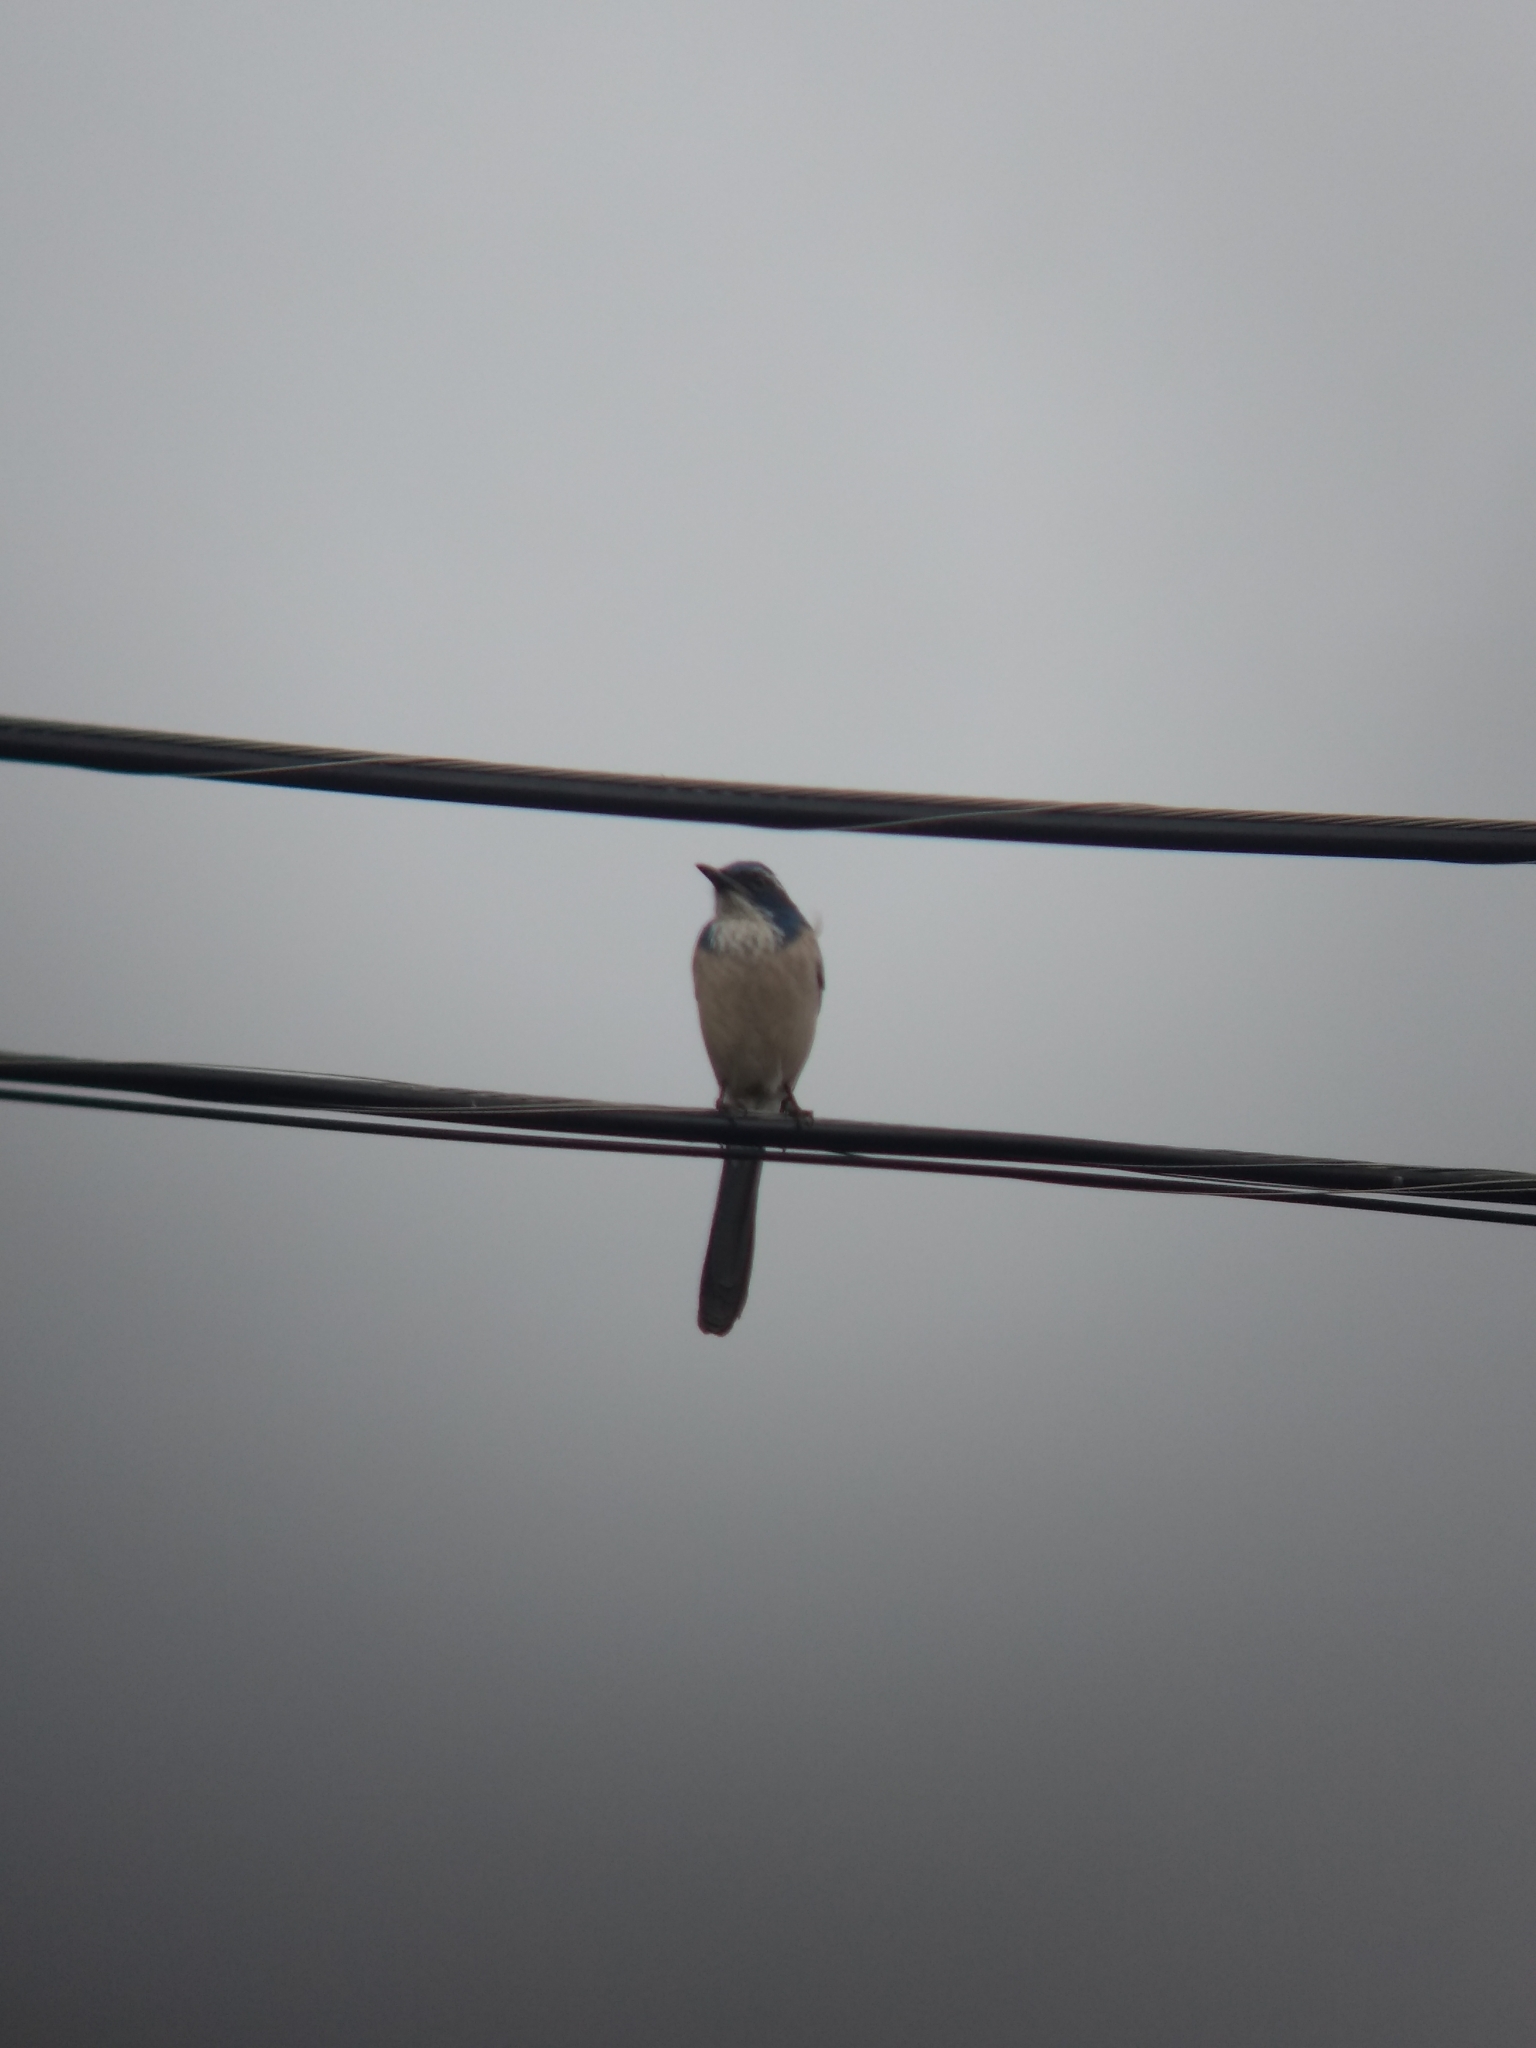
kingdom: Animalia
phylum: Chordata
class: Aves
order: Passeriformes
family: Corvidae
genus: Aphelocoma
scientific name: Aphelocoma californica
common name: California scrub-jay
